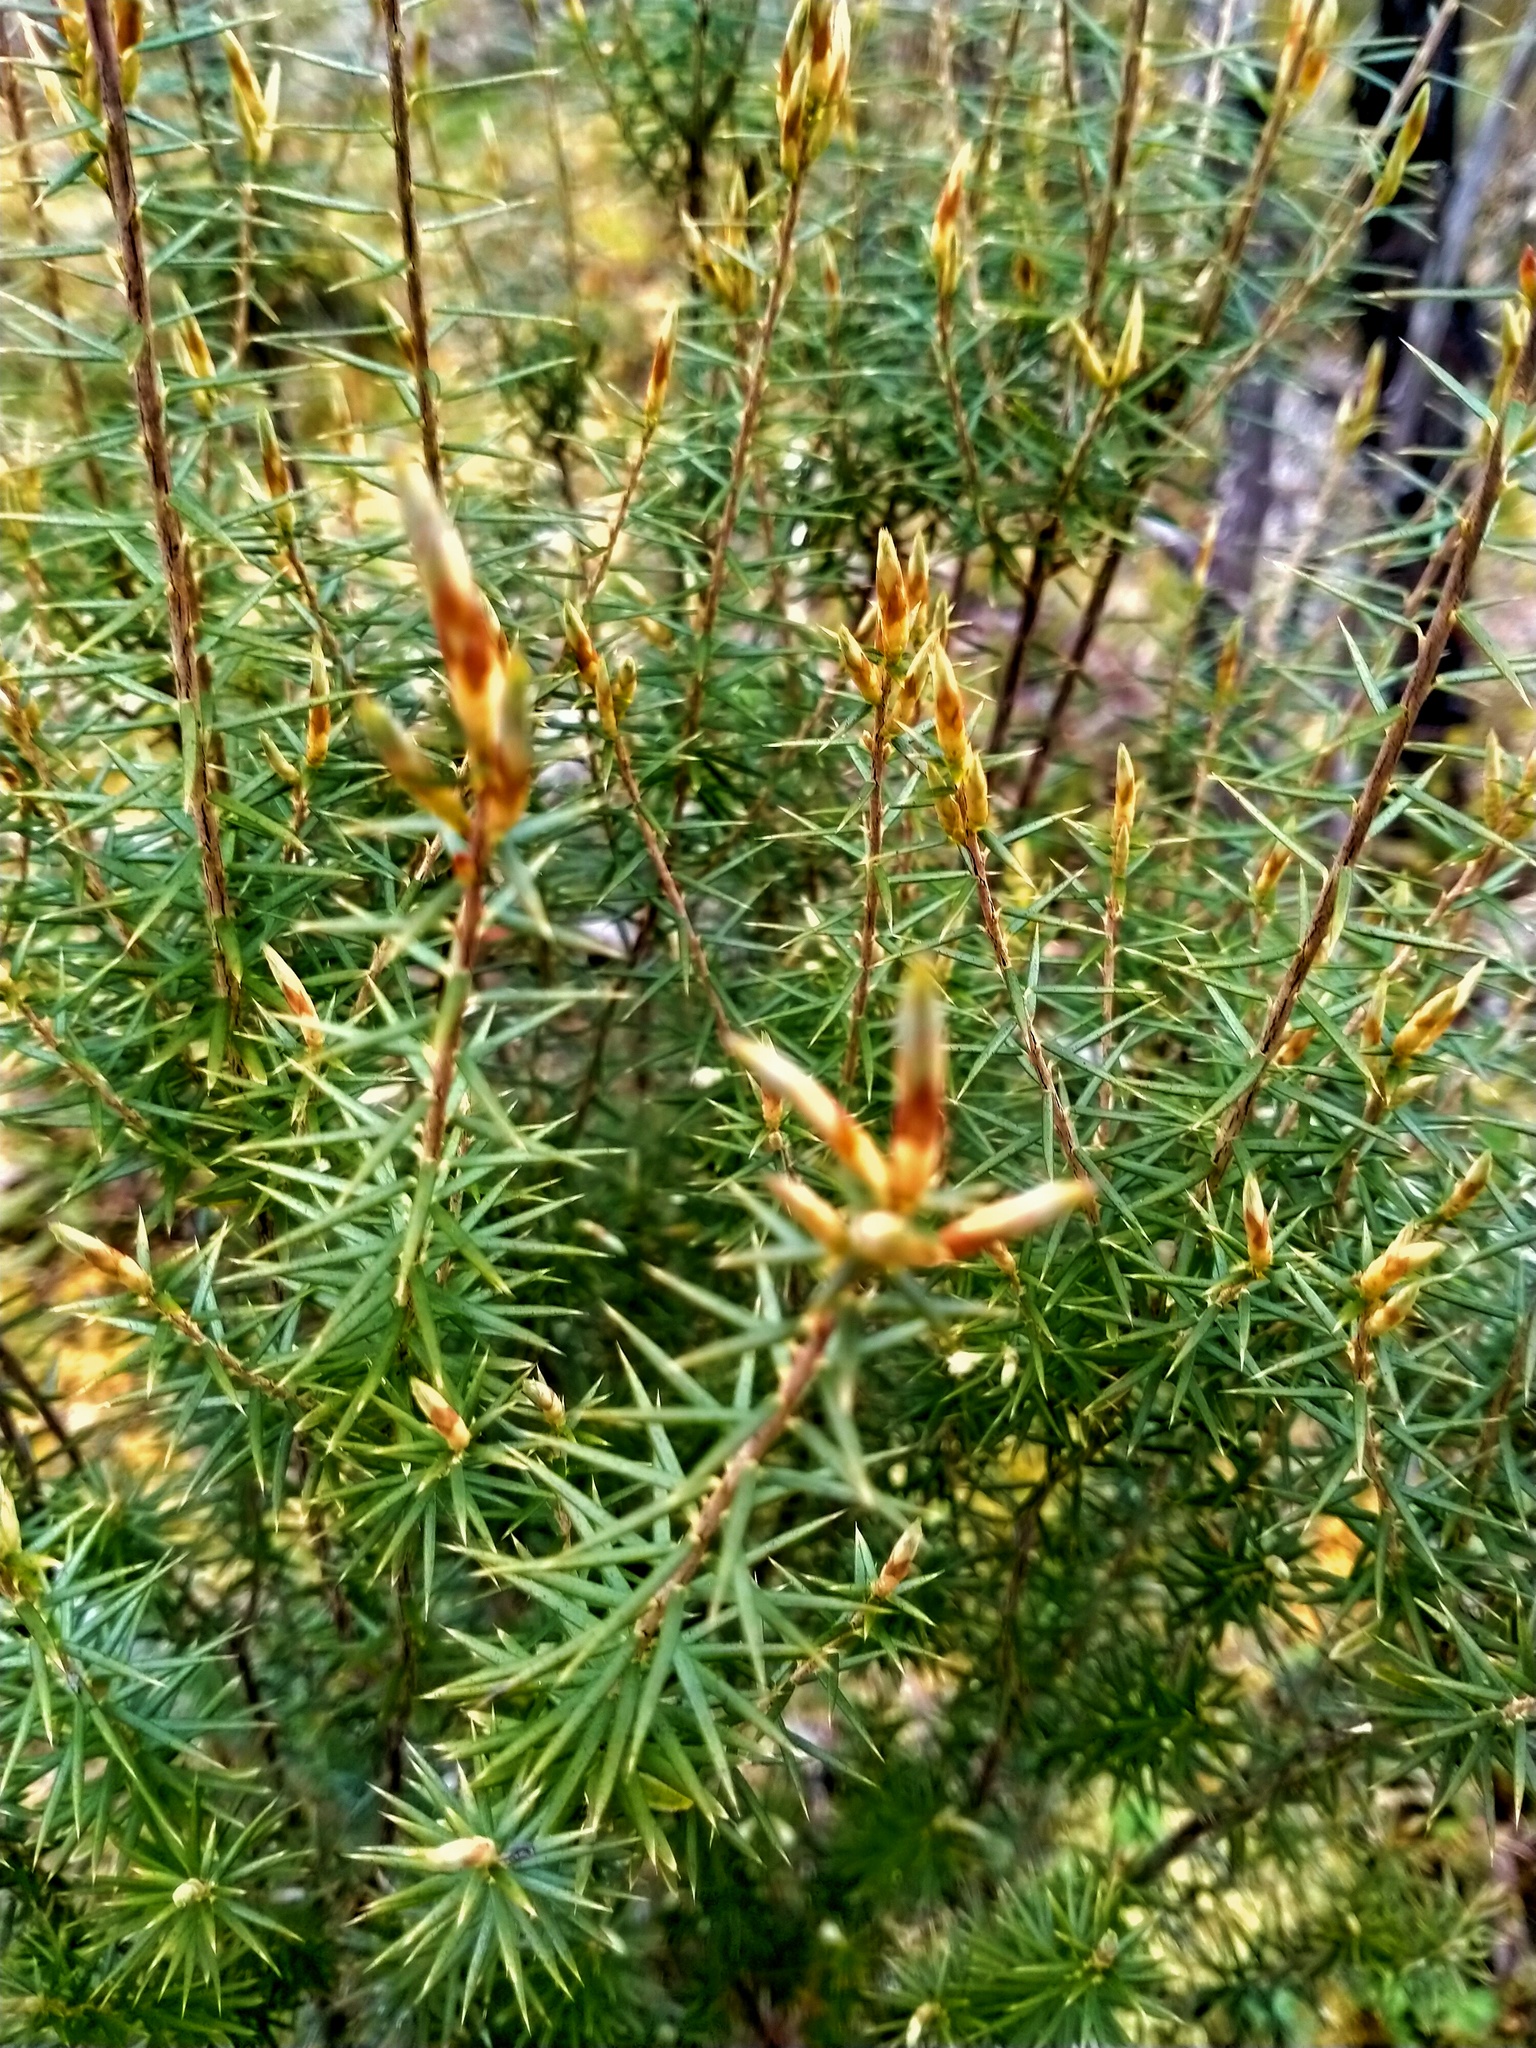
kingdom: Plantae
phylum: Tracheophyta
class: Magnoliopsida
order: Ericales
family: Ericaceae
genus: Leptecophylla
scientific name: Leptecophylla juniperina
